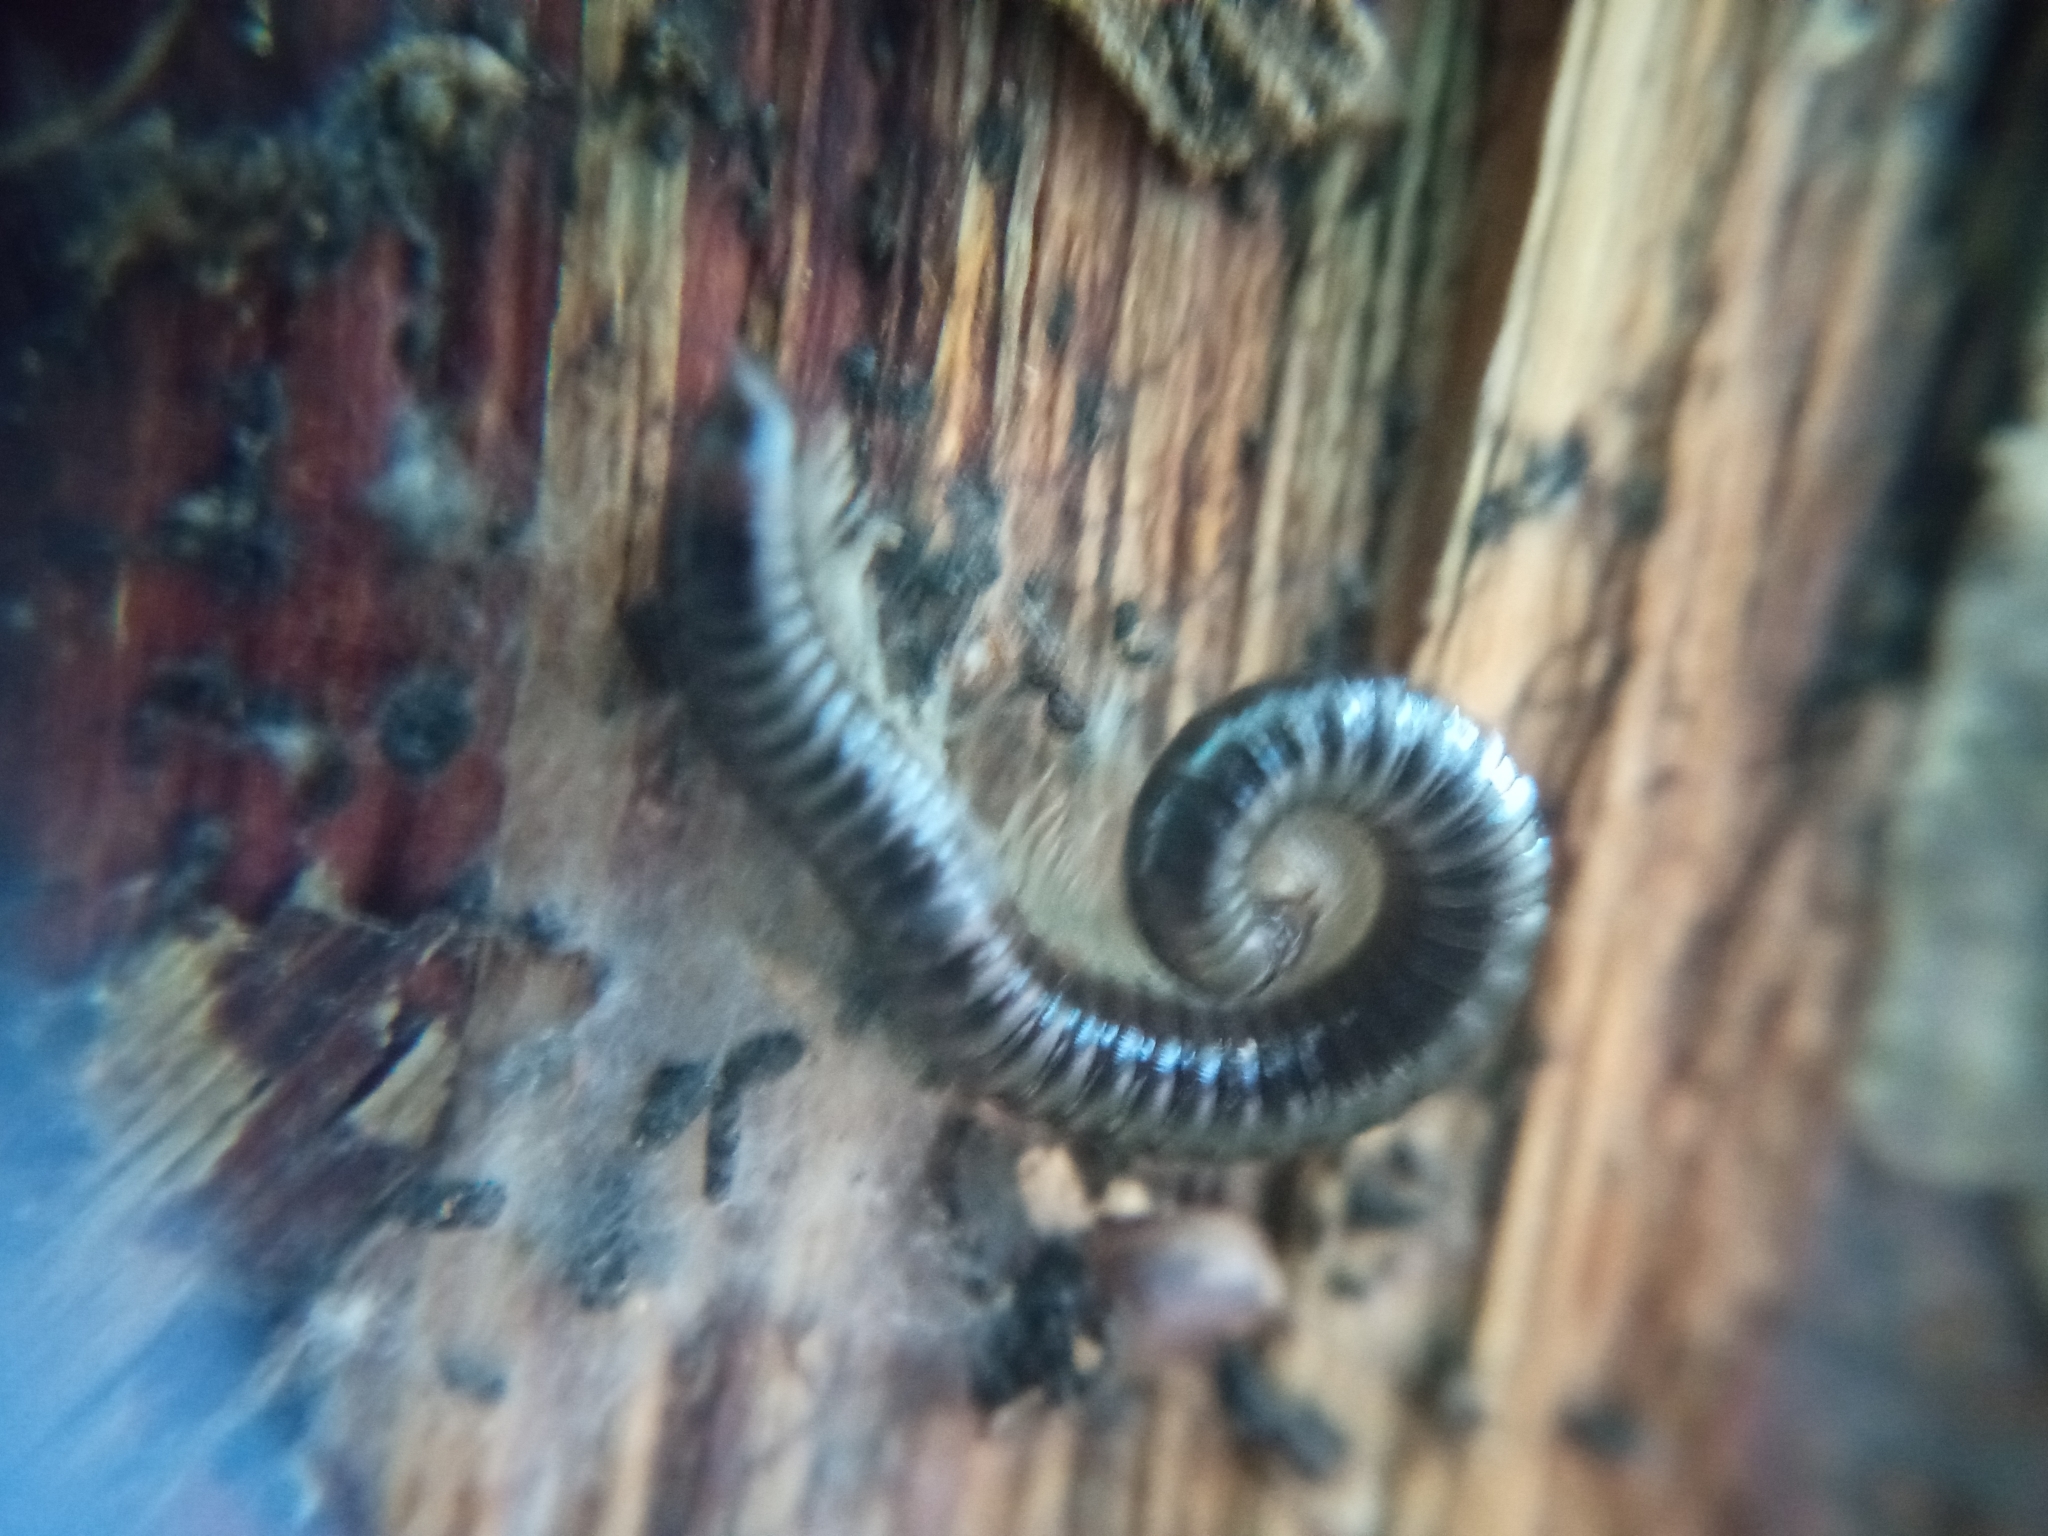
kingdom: Animalia
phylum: Arthropoda
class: Diplopoda
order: Julida
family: Julidae
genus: Tachypodoiulus
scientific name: Tachypodoiulus niger
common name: White-legged snake millipede
